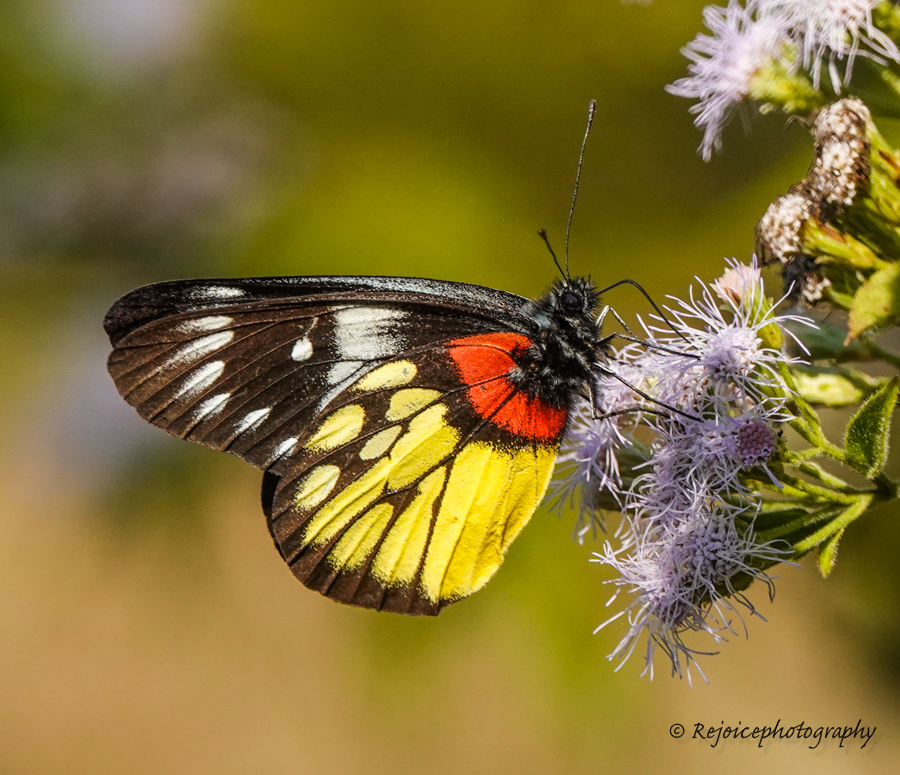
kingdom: Animalia
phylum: Arthropoda
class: Insecta
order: Lepidoptera
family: Pieridae
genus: Delias
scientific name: Delias pasithoe
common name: Red-base jezebel
